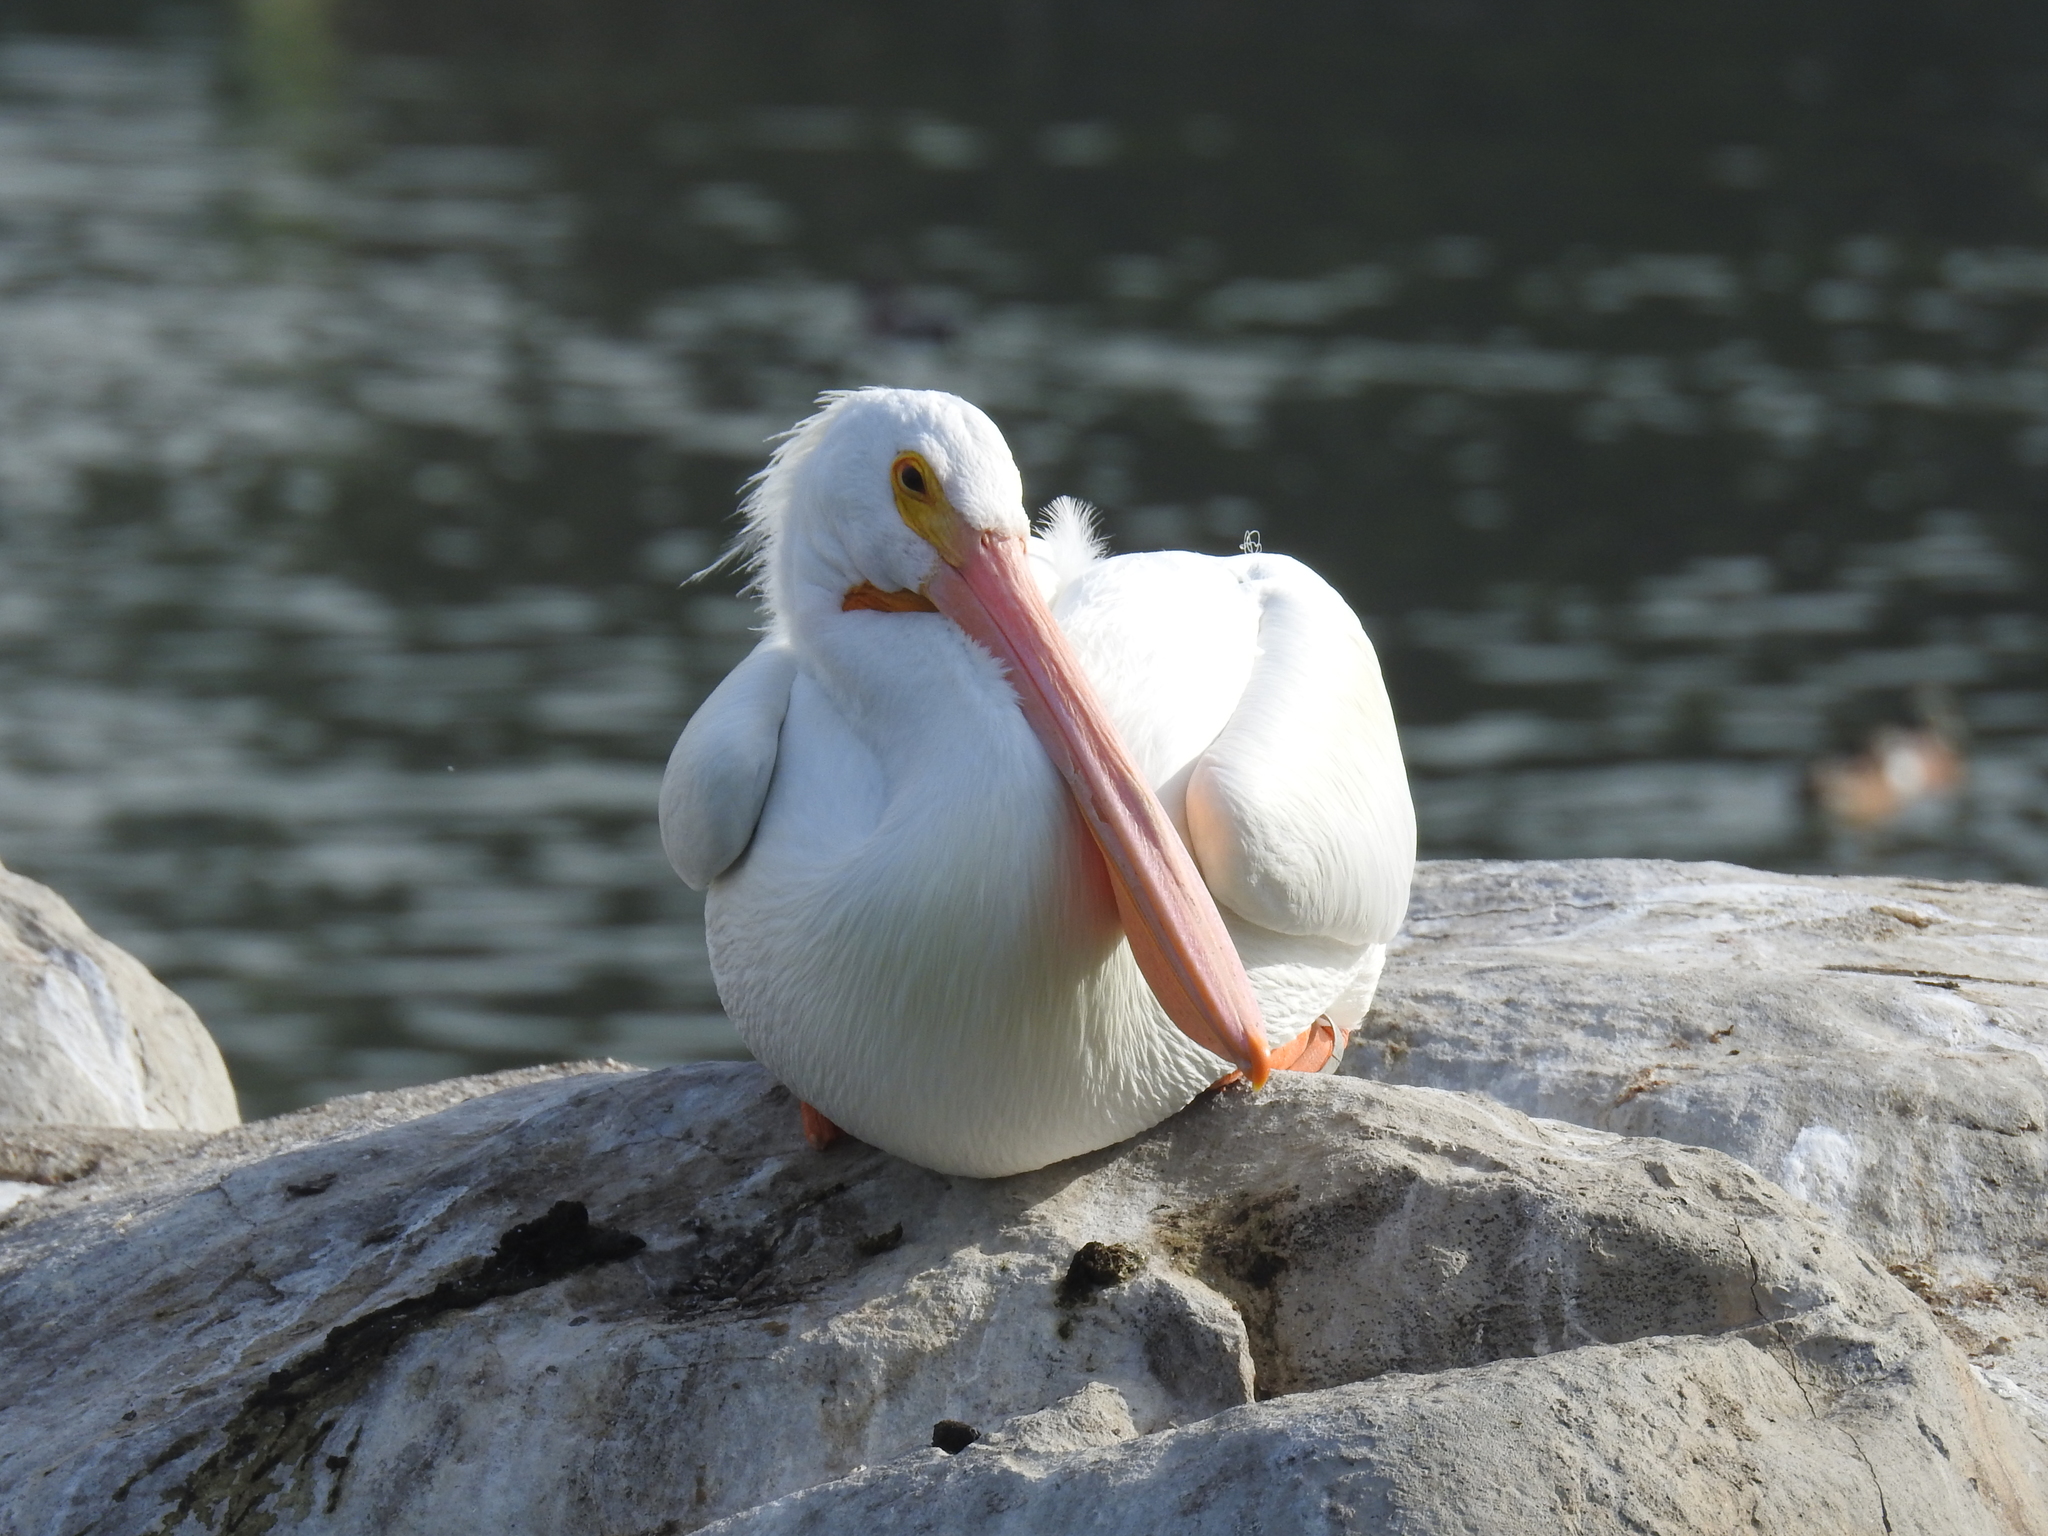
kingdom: Animalia
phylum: Chordata
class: Aves
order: Pelecaniformes
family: Pelecanidae
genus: Pelecanus
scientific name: Pelecanus erythrorhynchos
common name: American white pelican
